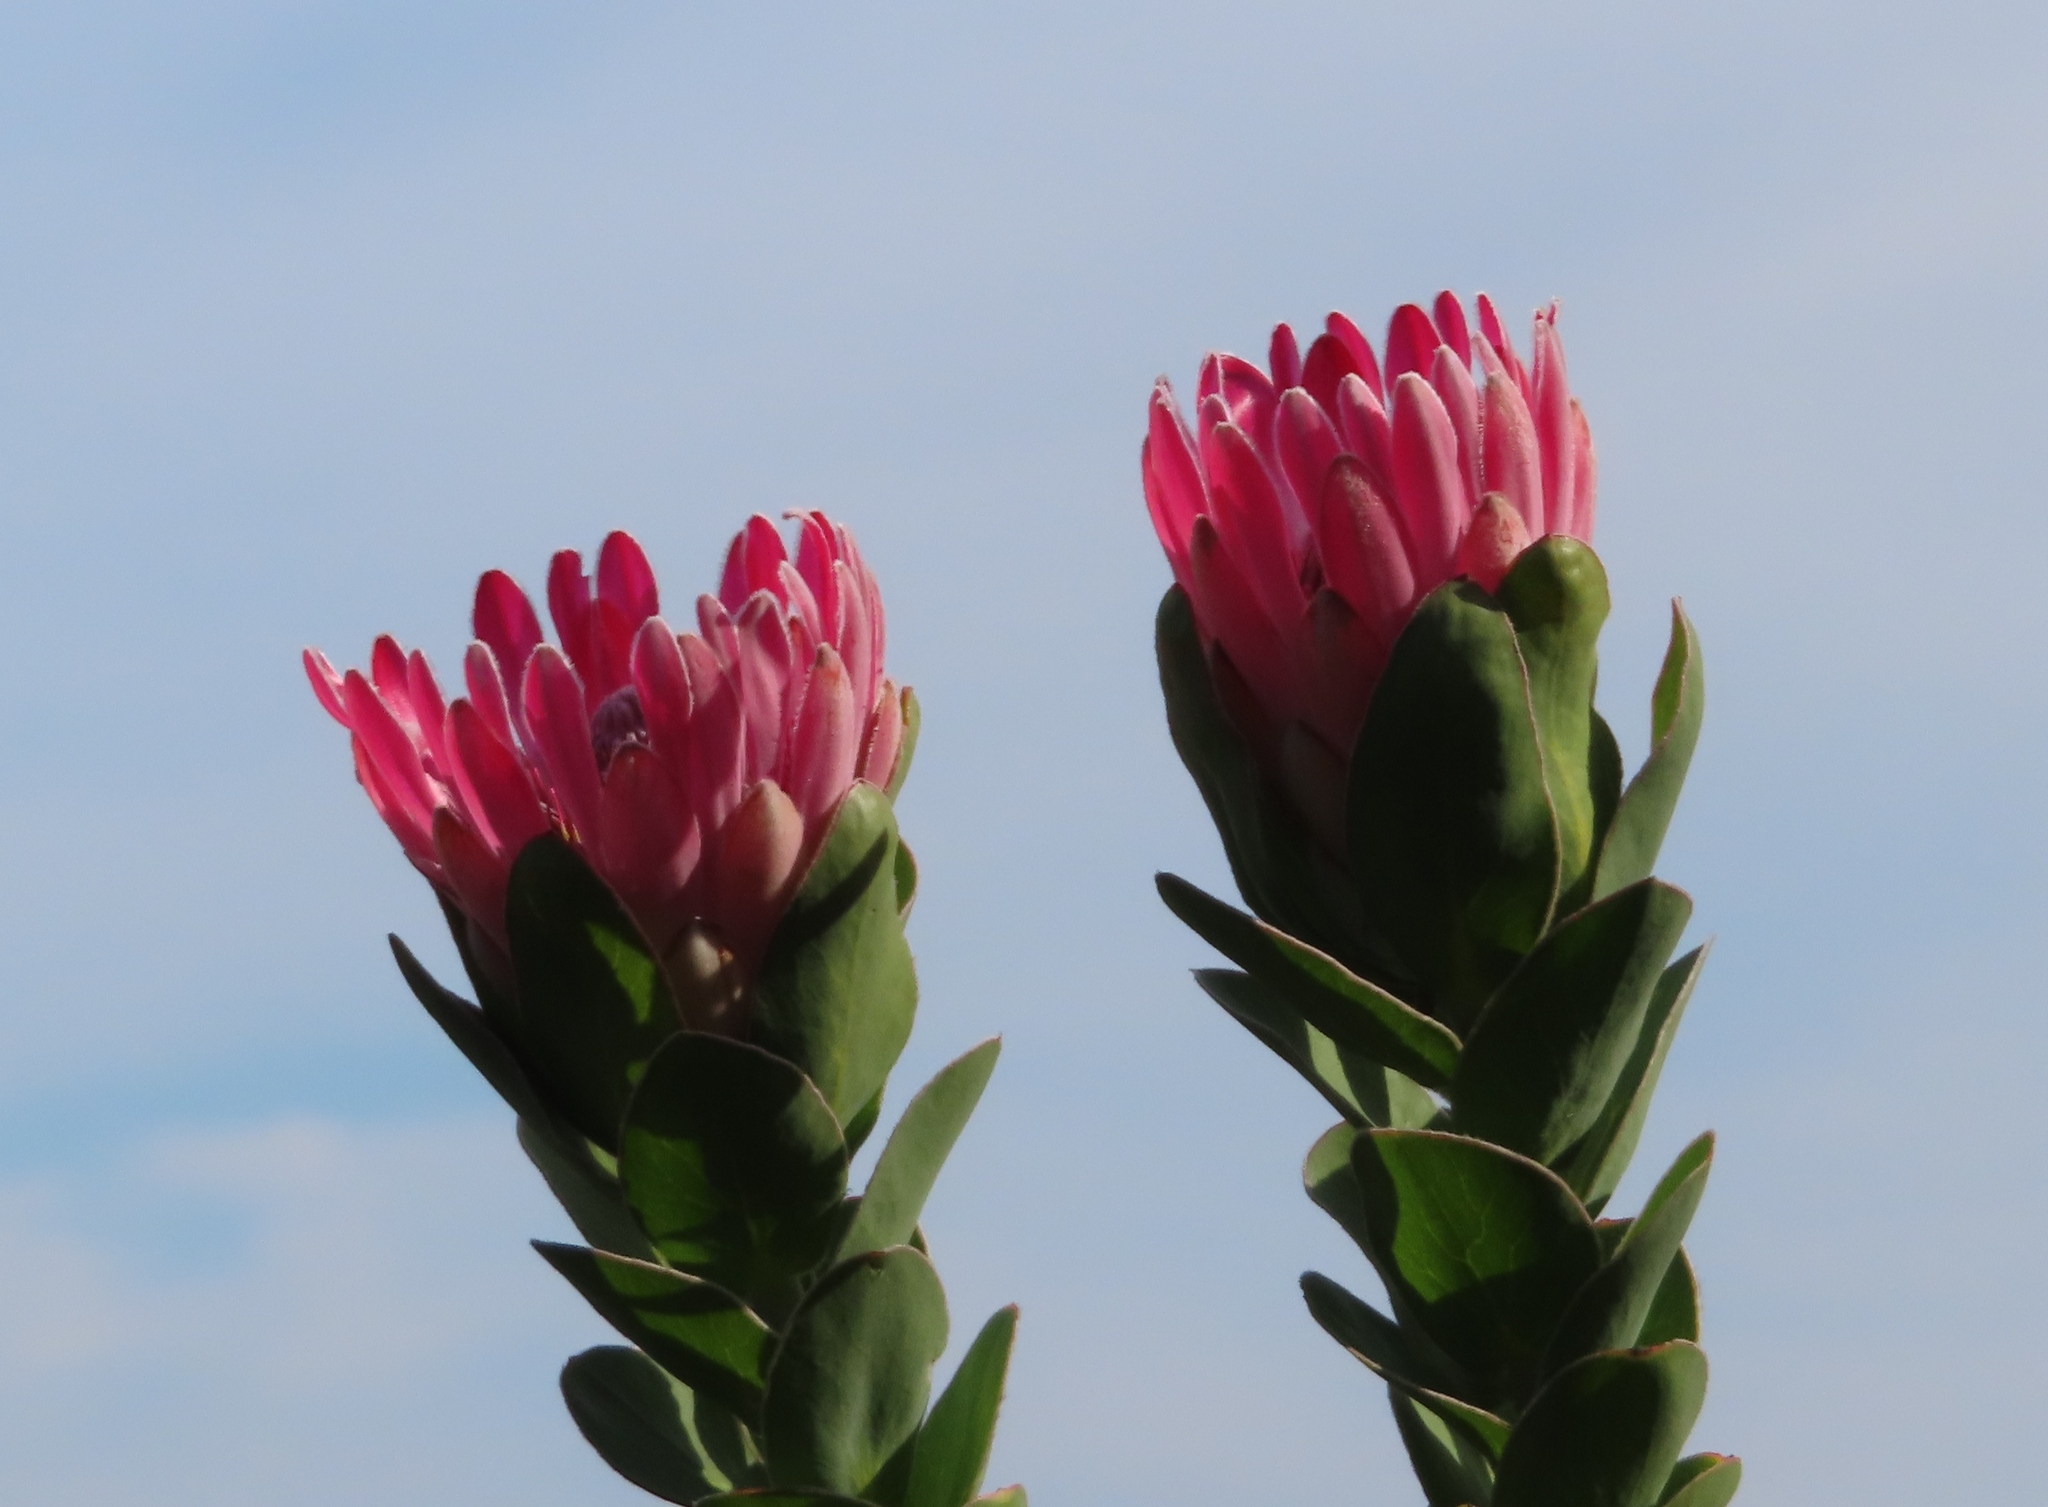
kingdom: Plantae
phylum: Tracheophyta
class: Magnoliopsida
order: Proteales
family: Proteaceae
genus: Protea
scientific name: Protea compacta
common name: Bot river protea
